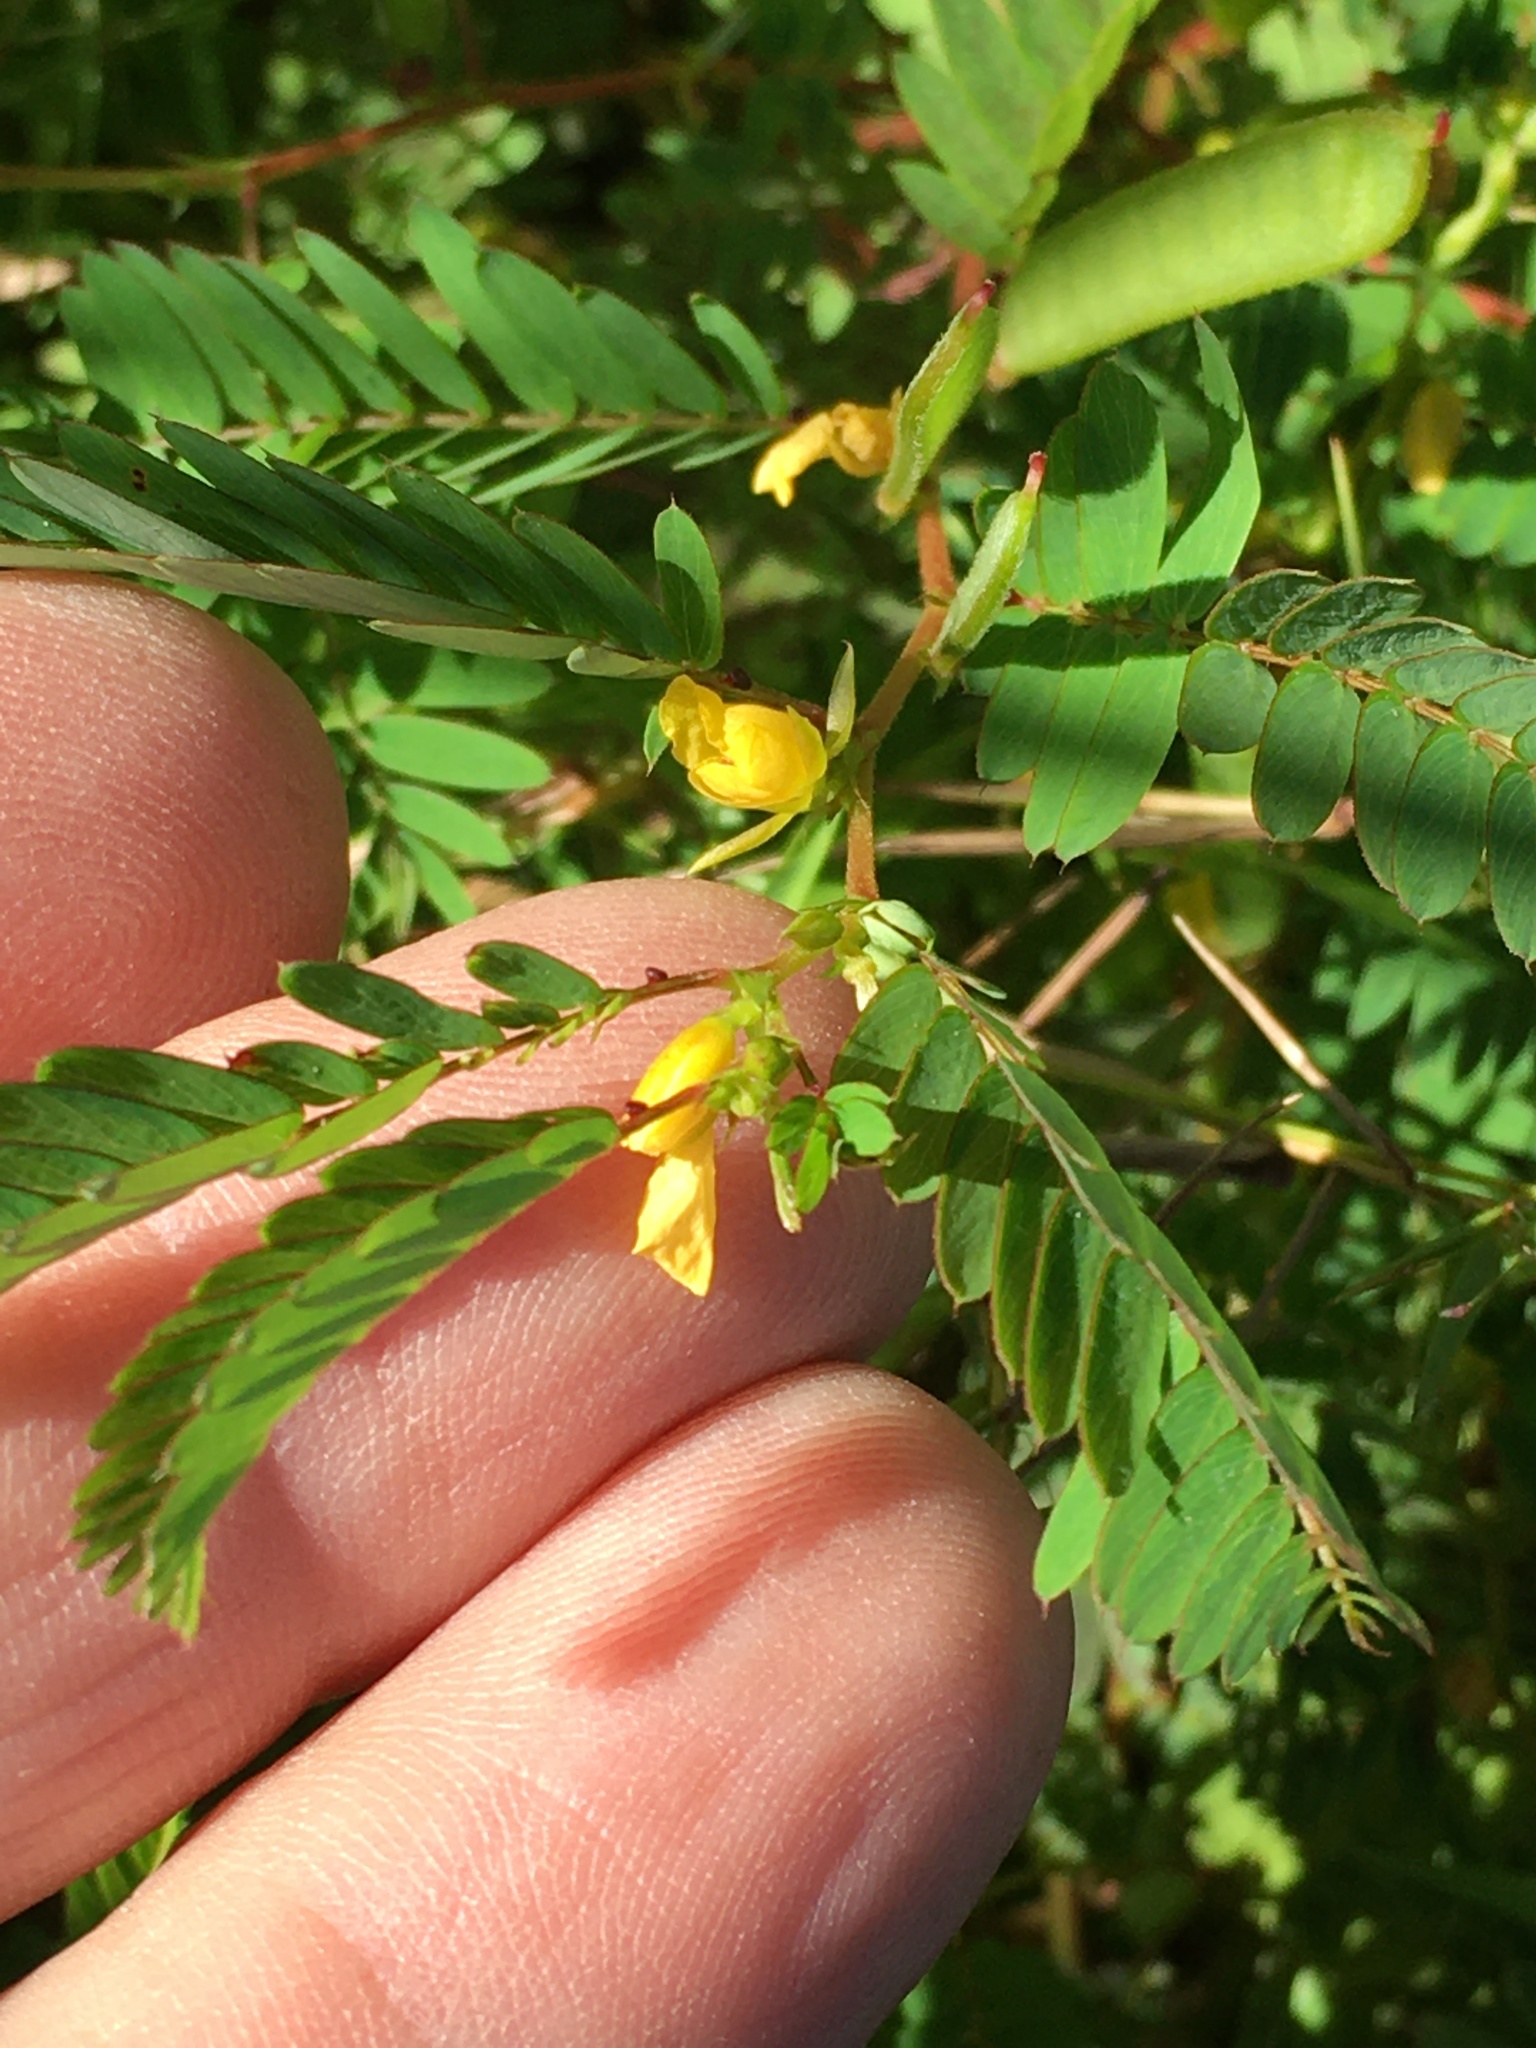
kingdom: Plantae
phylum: Tracheophyta
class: Magnoliopsida
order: Fabales
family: Fabaceae
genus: Chamaecrista
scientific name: Chamaecrista nictitans
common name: Sensitive cassia
